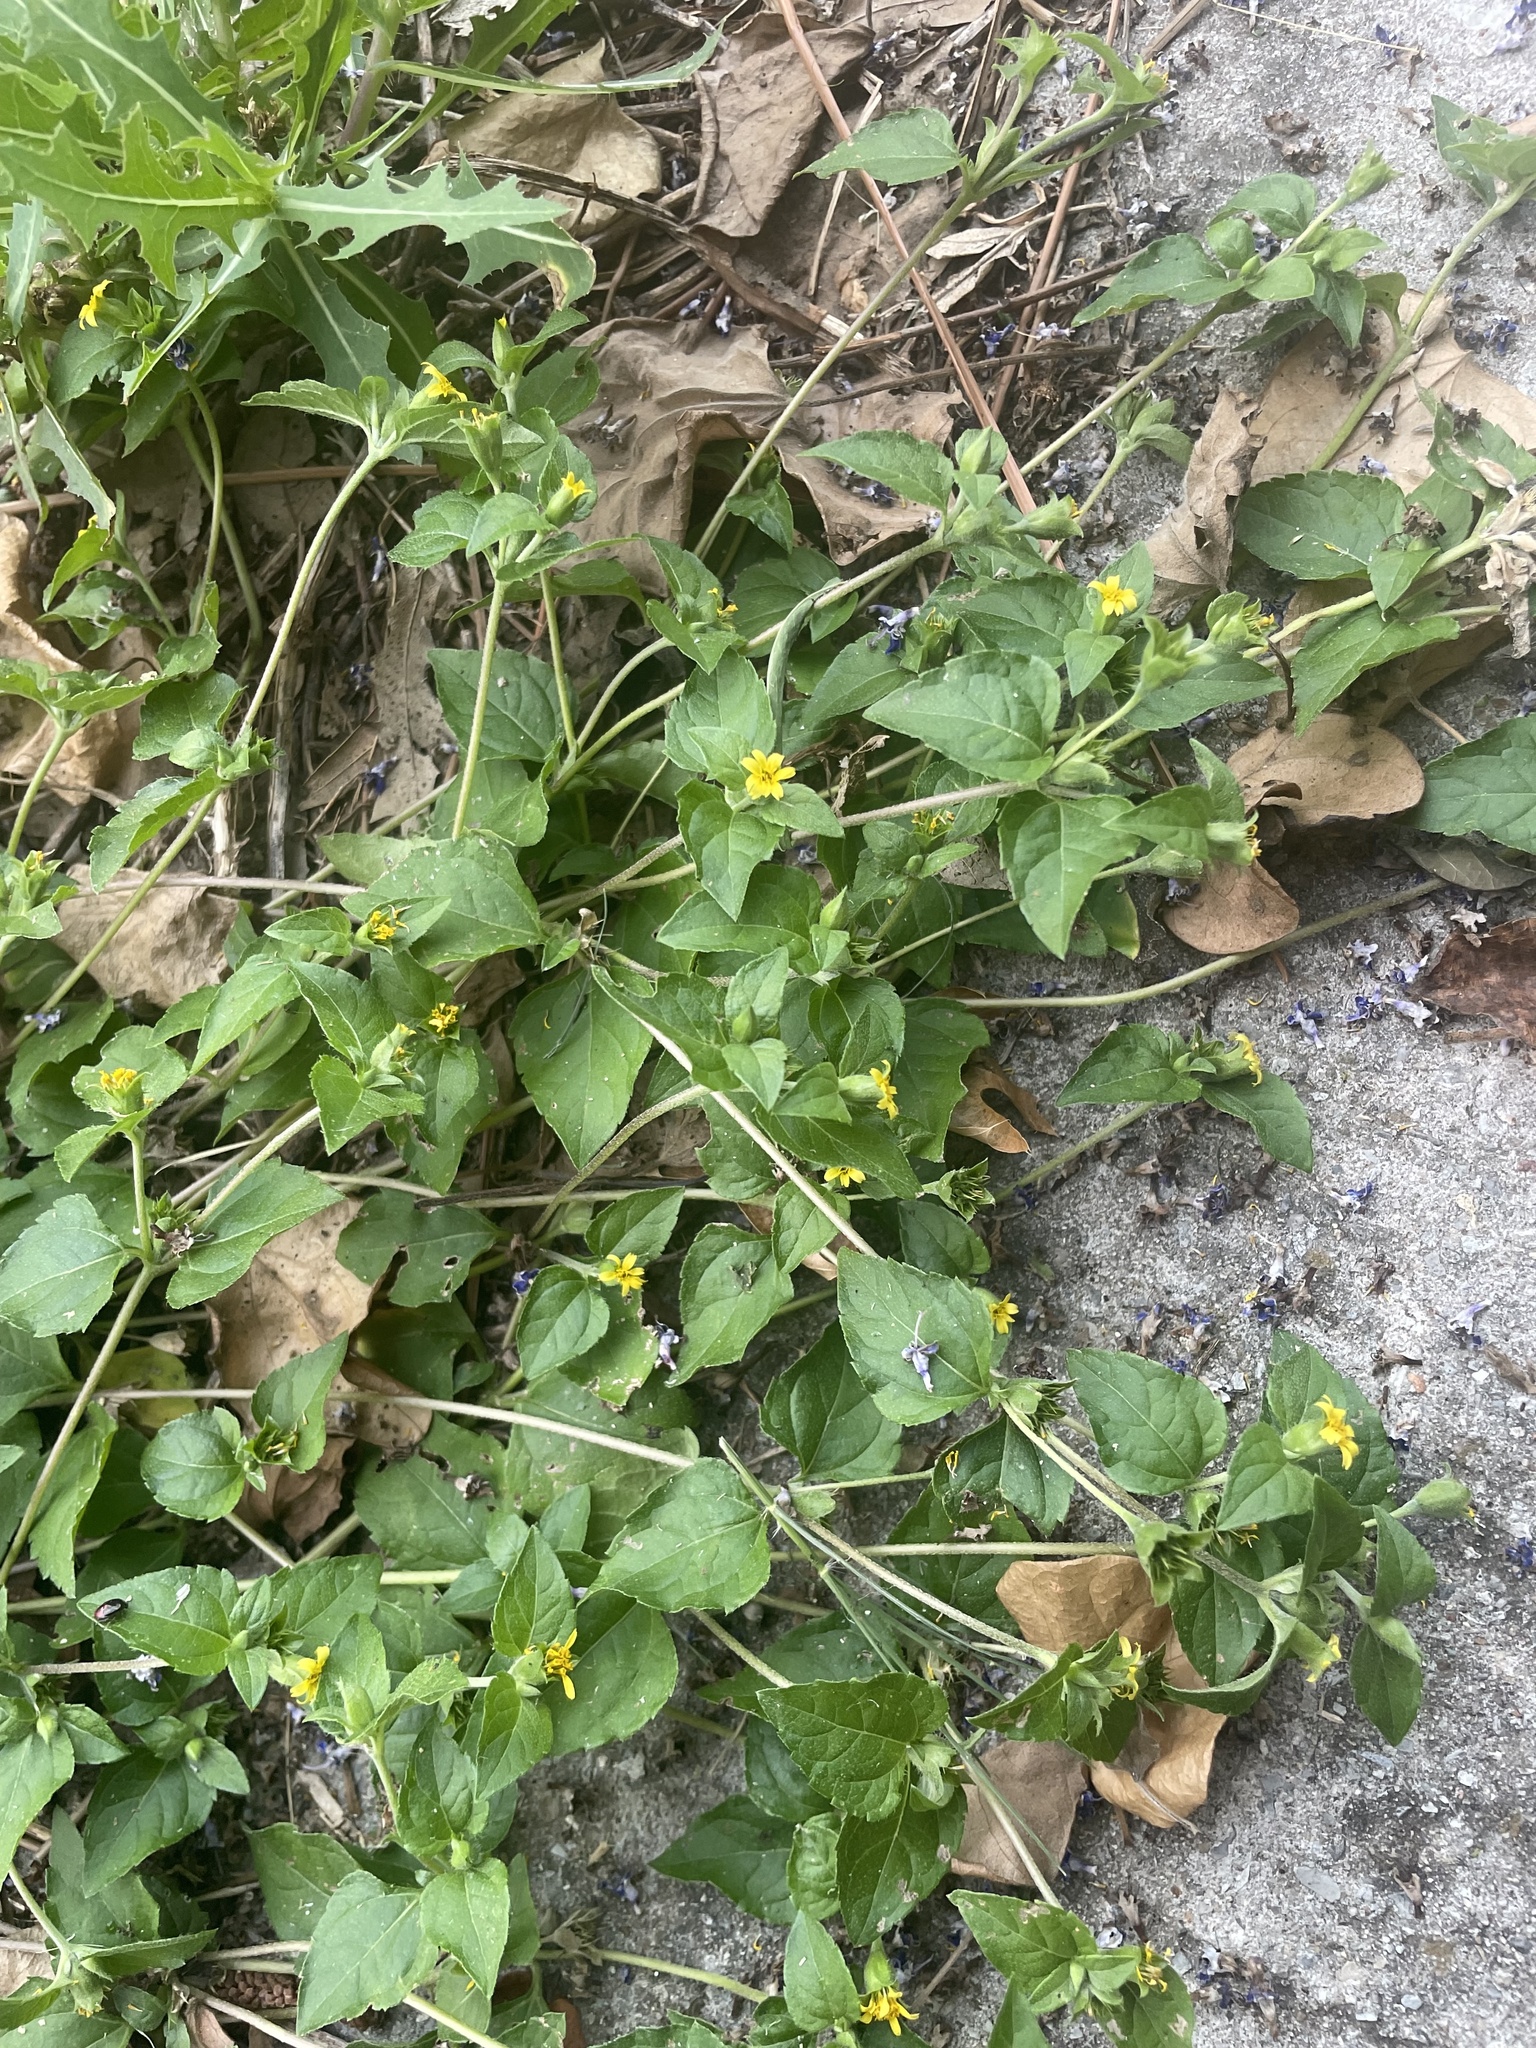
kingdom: Plantae
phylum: Tracheophyta
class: Magnoliopsida
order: Asterales
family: Asteraceae
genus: Calyptocarpus
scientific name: Calyptocarpus vialis
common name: Straggler daisy
